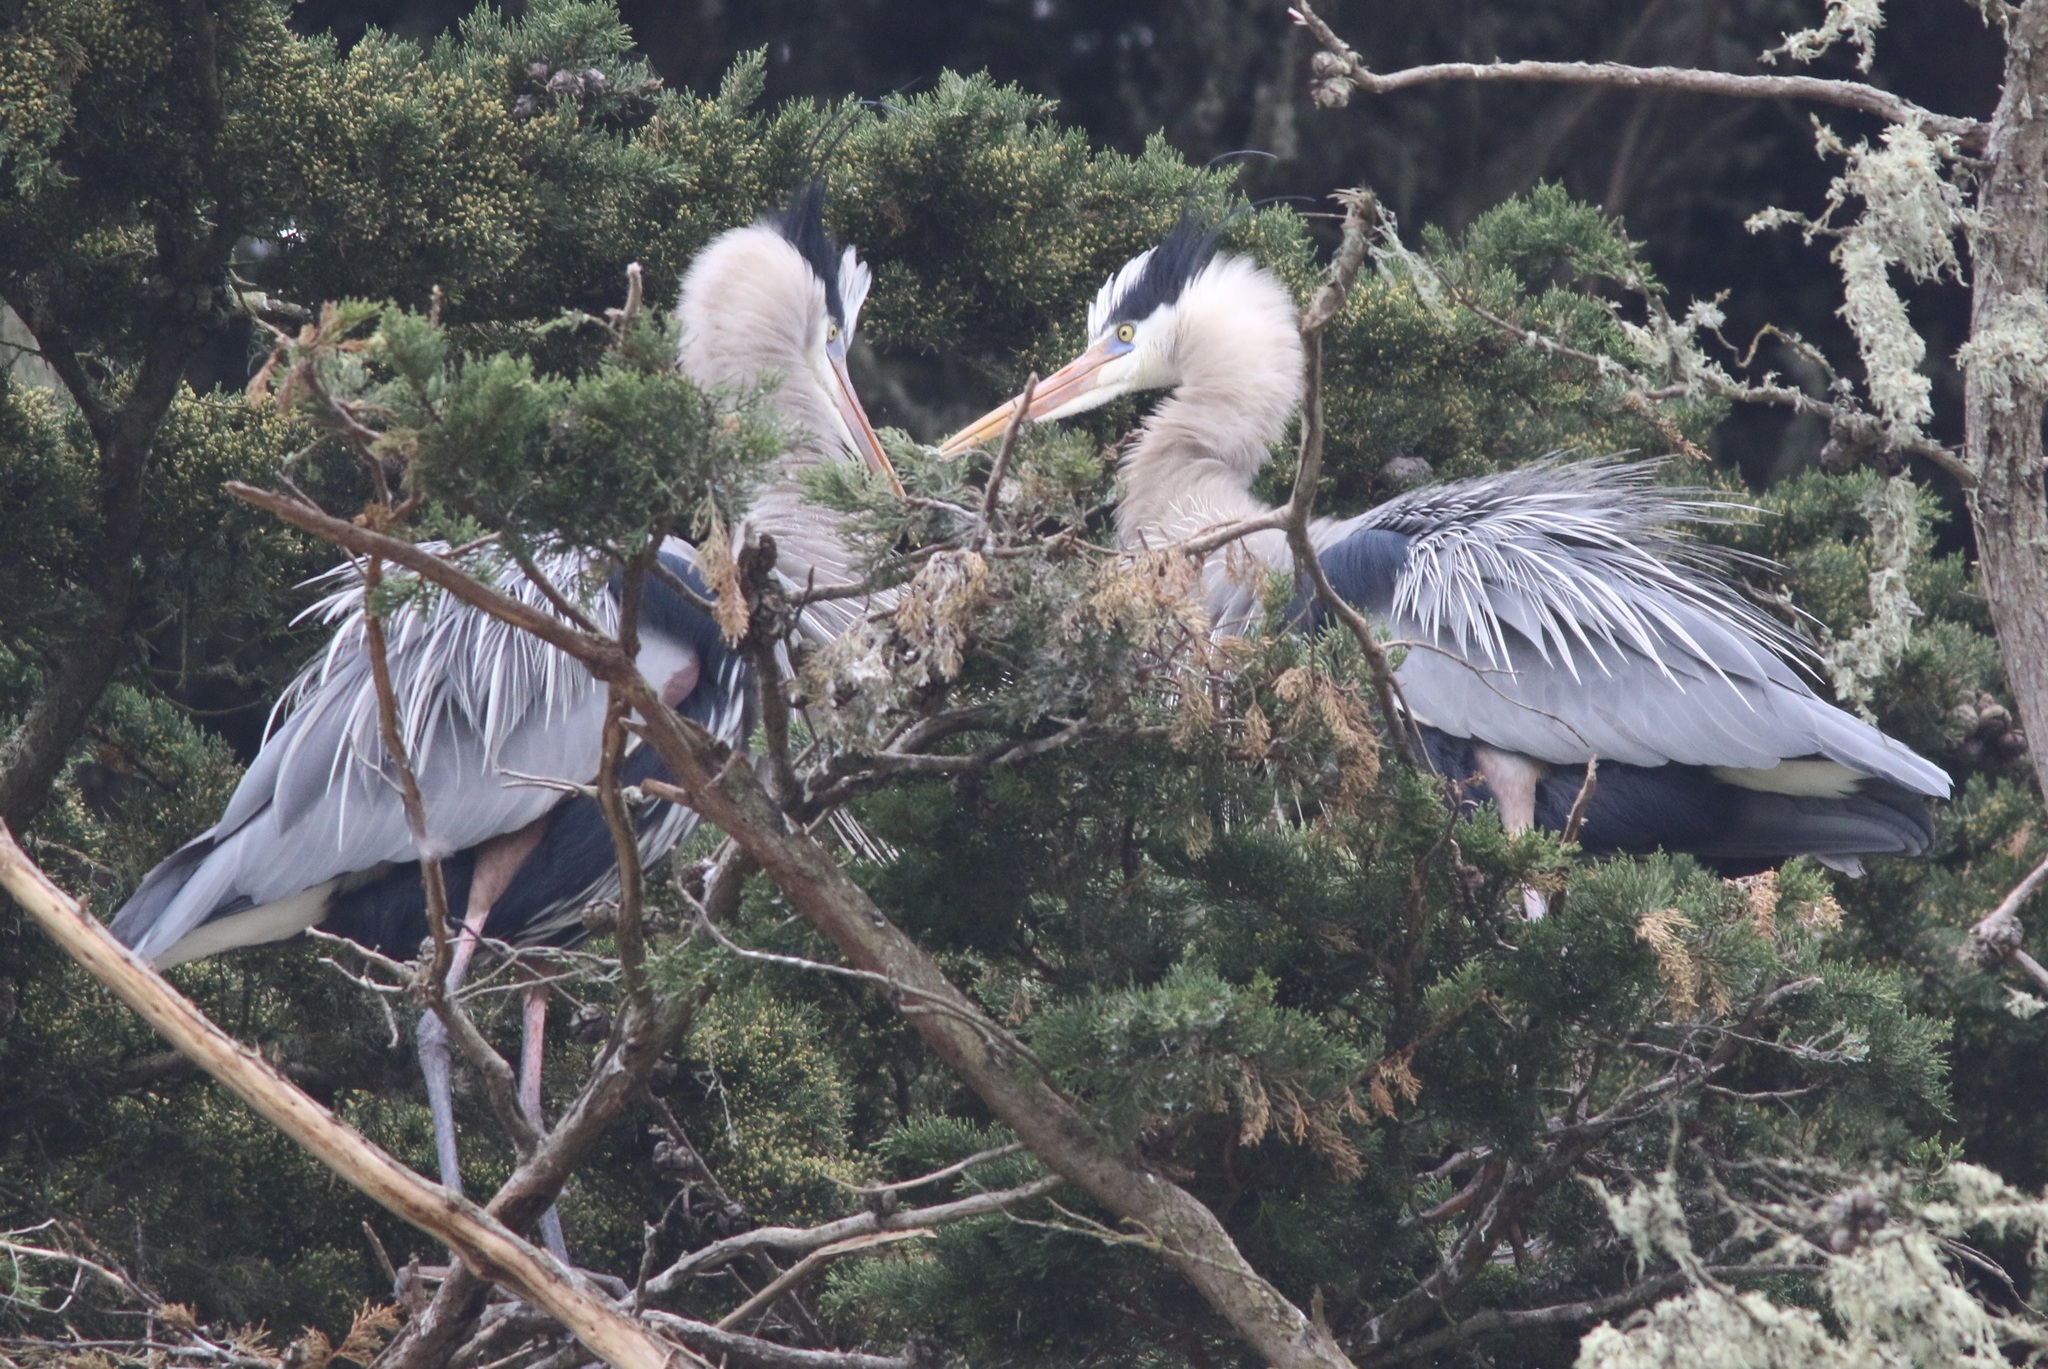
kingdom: Animalia
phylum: Chordata
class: Aves
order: Pelecaniformes
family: Ardeidae
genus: Ardea
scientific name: Ardea herodias
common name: Great blue heron
